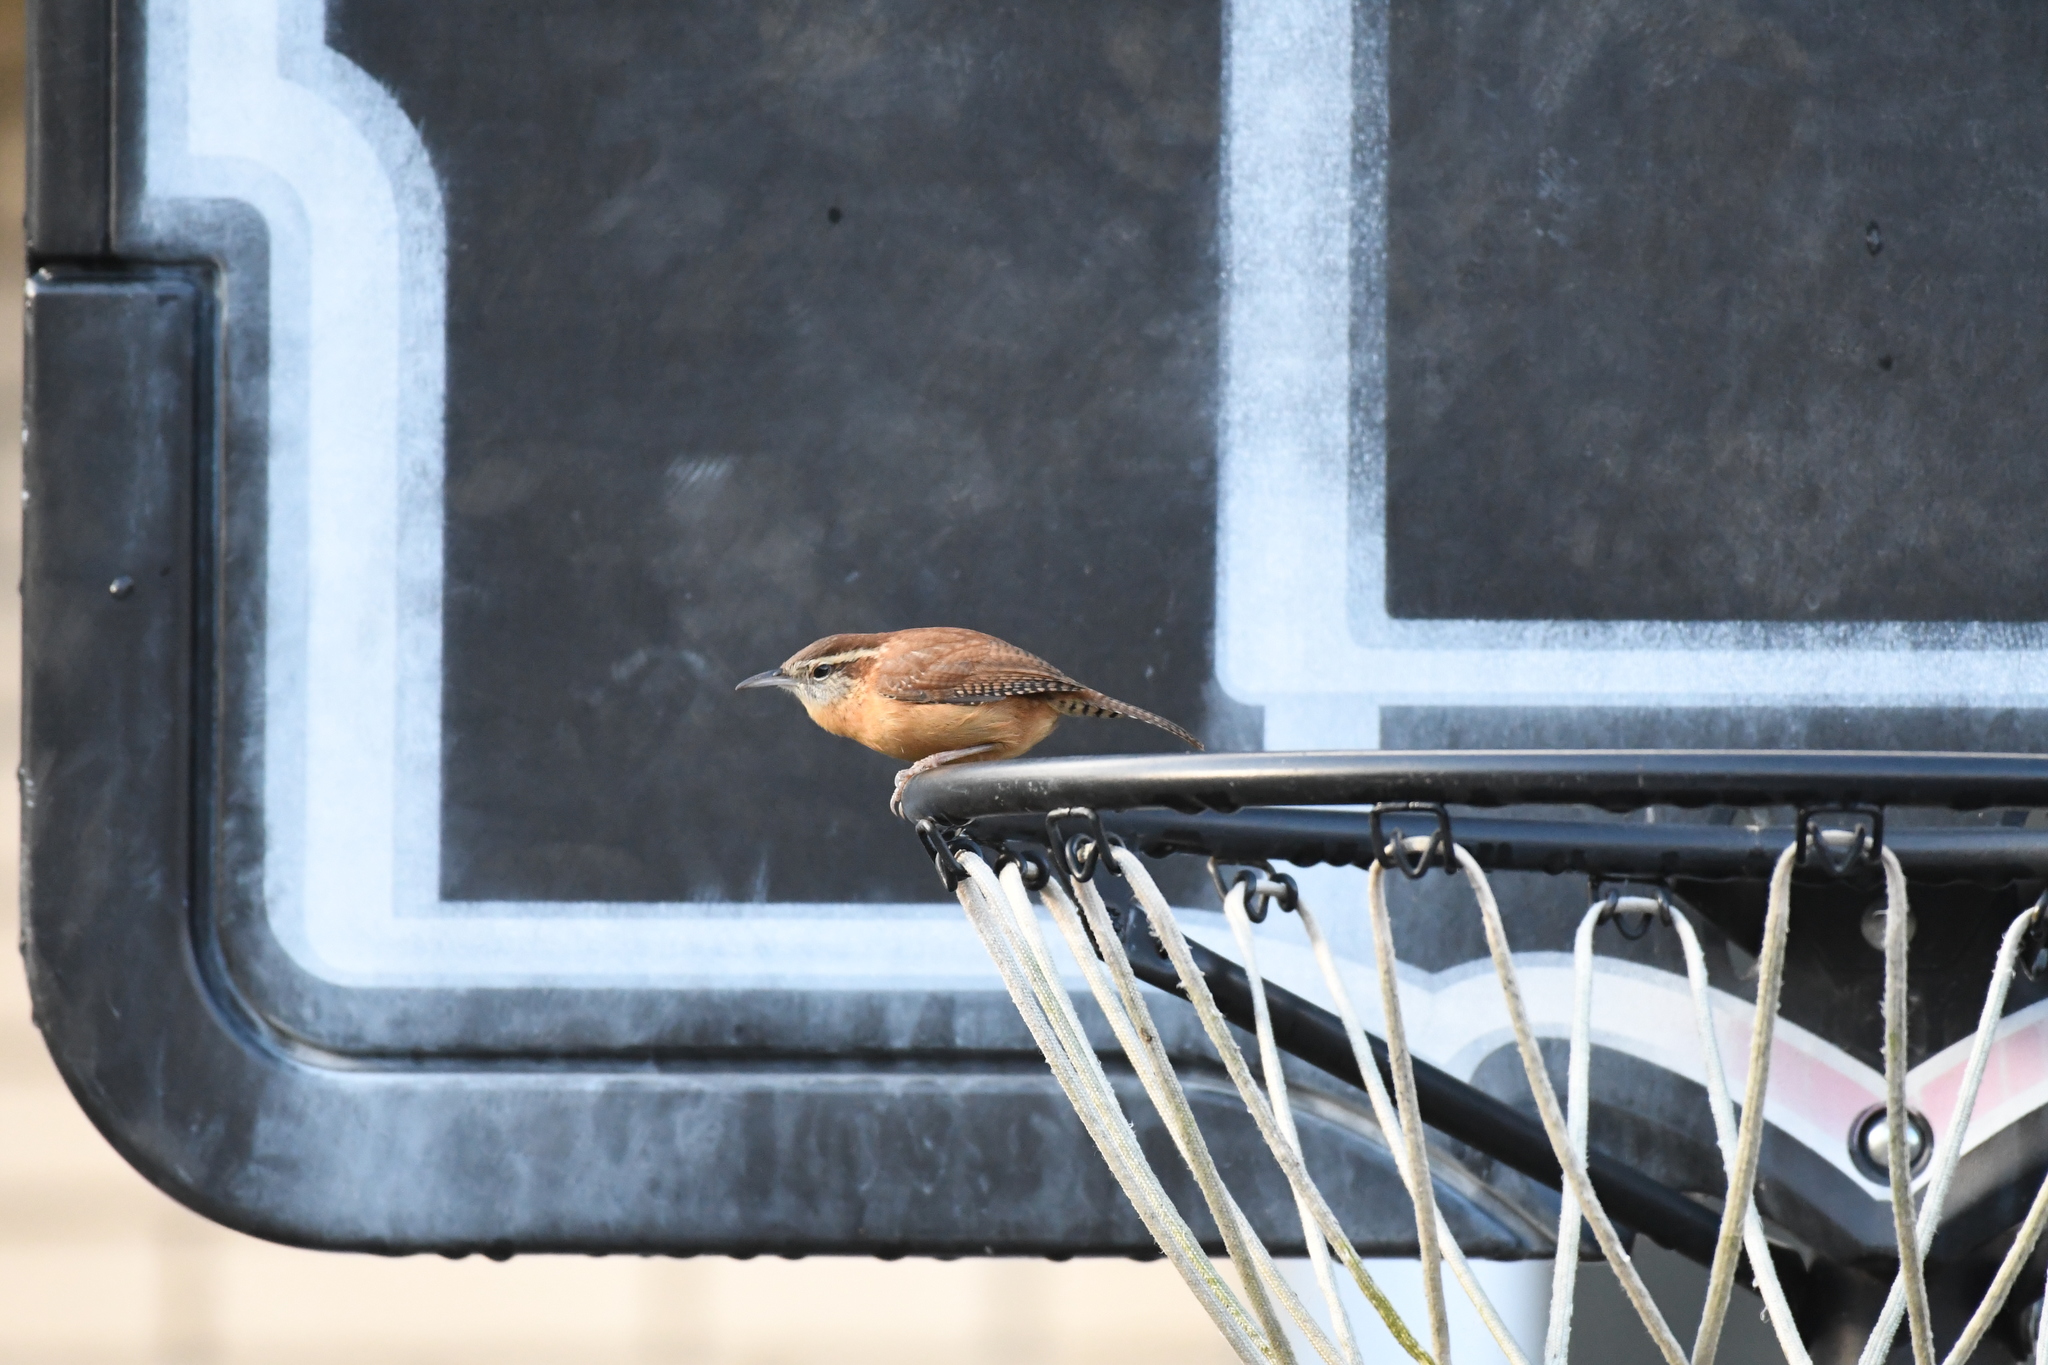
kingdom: Animalia
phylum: Chordata
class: Aves
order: Passeriformes
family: Troglodytidae
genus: Thryothorus
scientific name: Thryothorus ludovicianus
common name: Carolina wren
